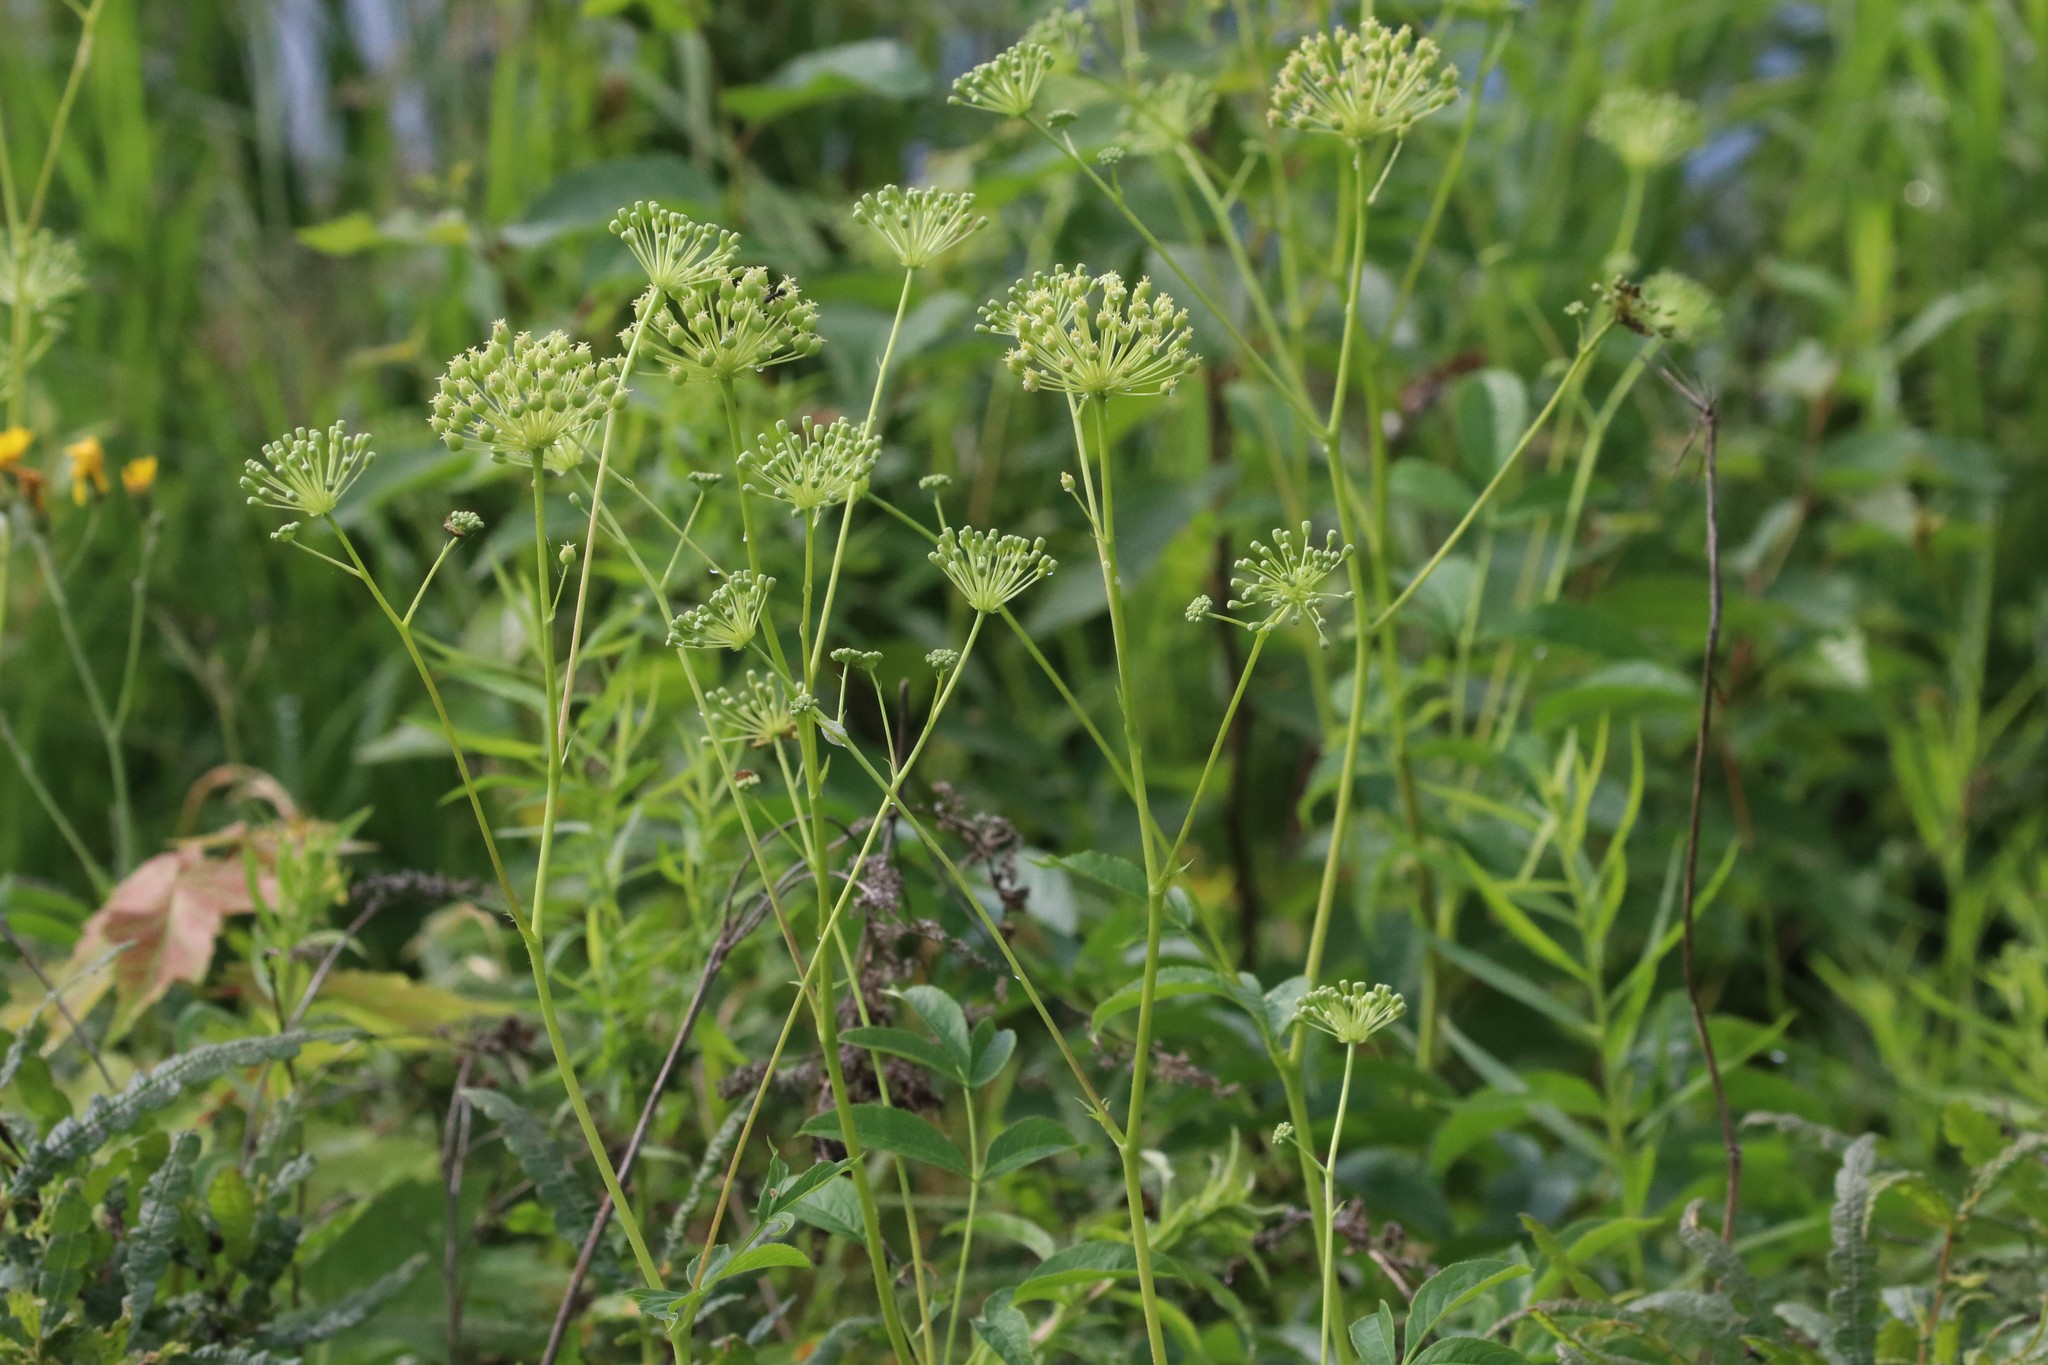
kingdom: Plantae
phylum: Tracheophyta
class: Magnoliopsida
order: Apiales
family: Araliaceae
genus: Aralia
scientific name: Aralia hispida
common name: Bristly sarsaparilla
